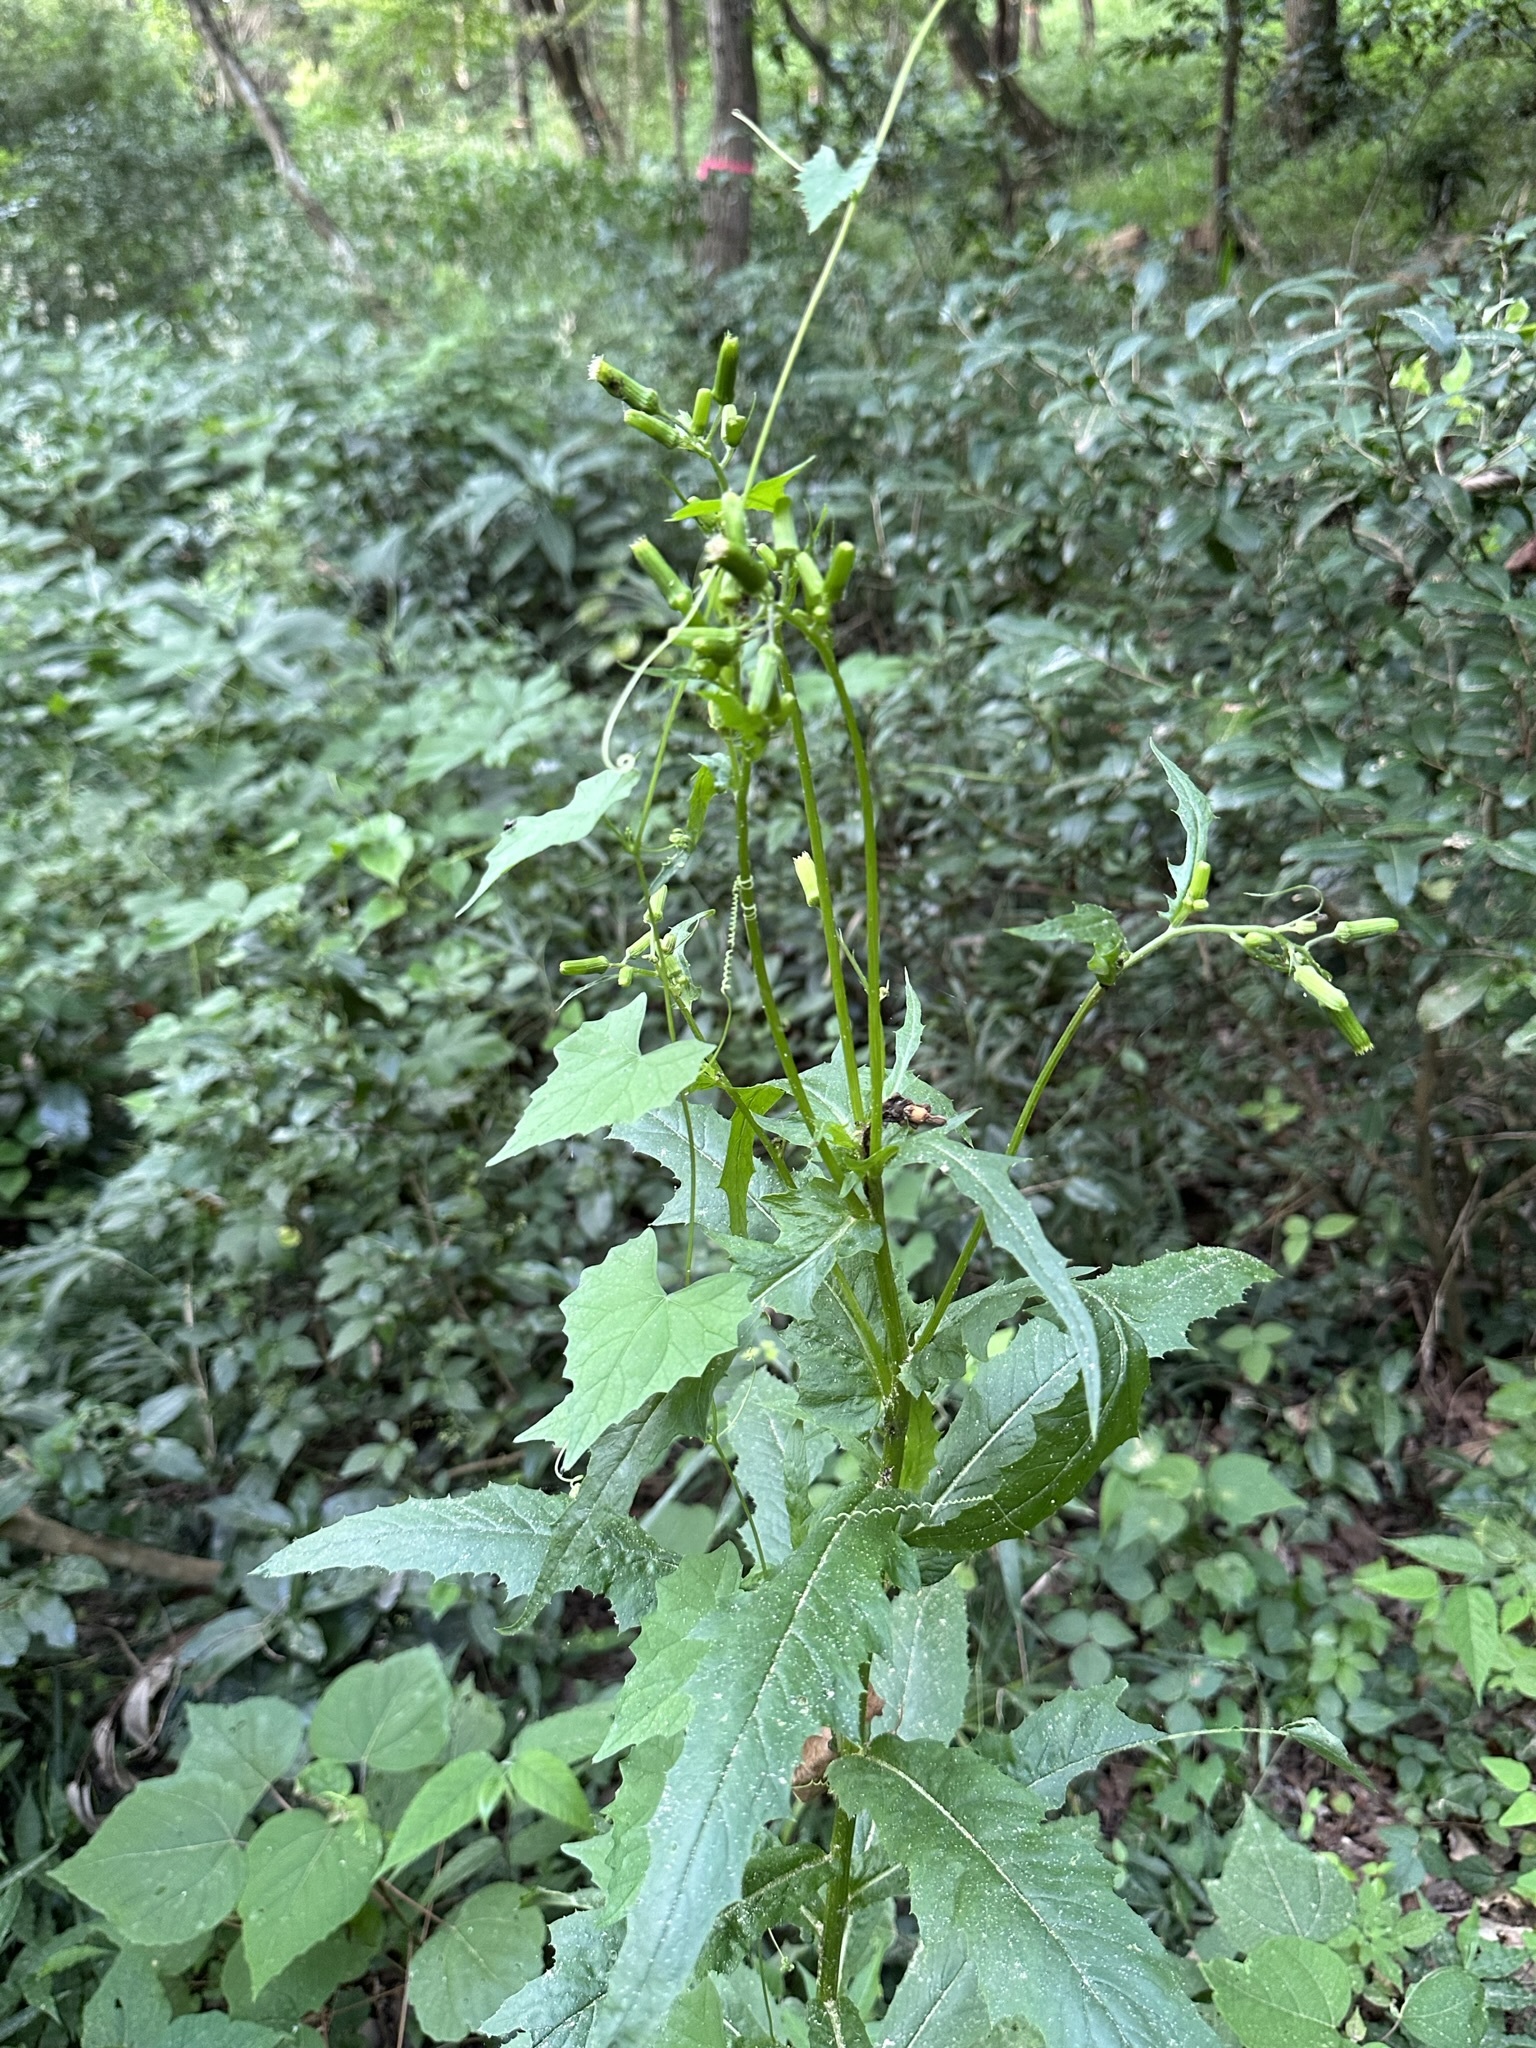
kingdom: Plantae
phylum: Tracheophyta
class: Magnoliopsida
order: Asterales
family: Asteraceae
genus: Erechtites
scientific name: Erechtites hieraciifolius
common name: American burnweed
